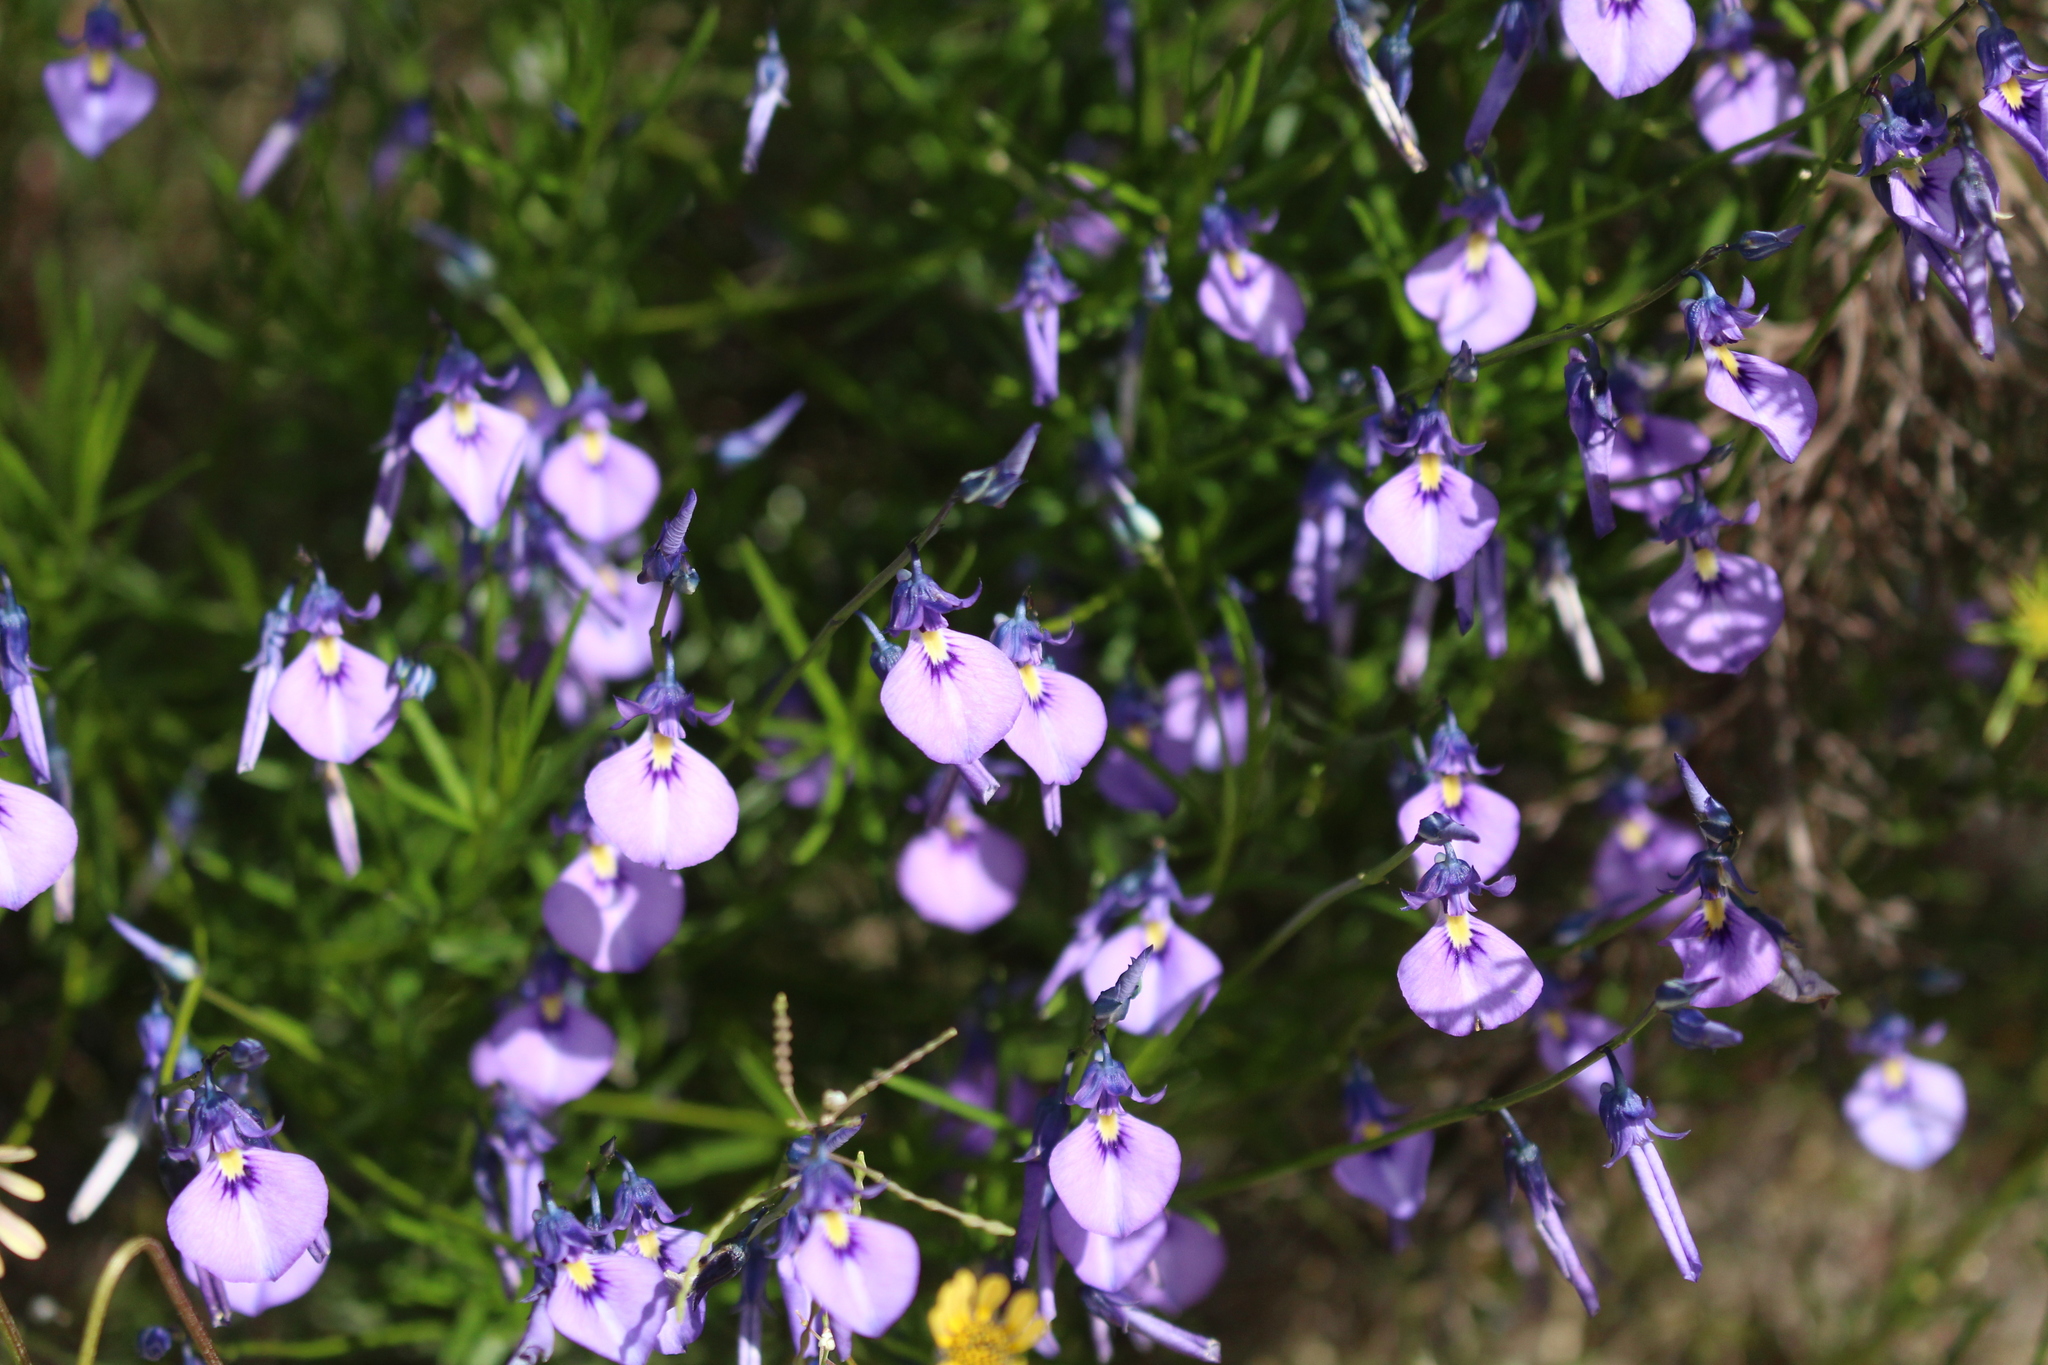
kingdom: Plantae
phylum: Tracheophyta
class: Magnoliopsida
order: Malpighiales
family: Violaceae
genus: Pigea
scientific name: Pigea calycina
